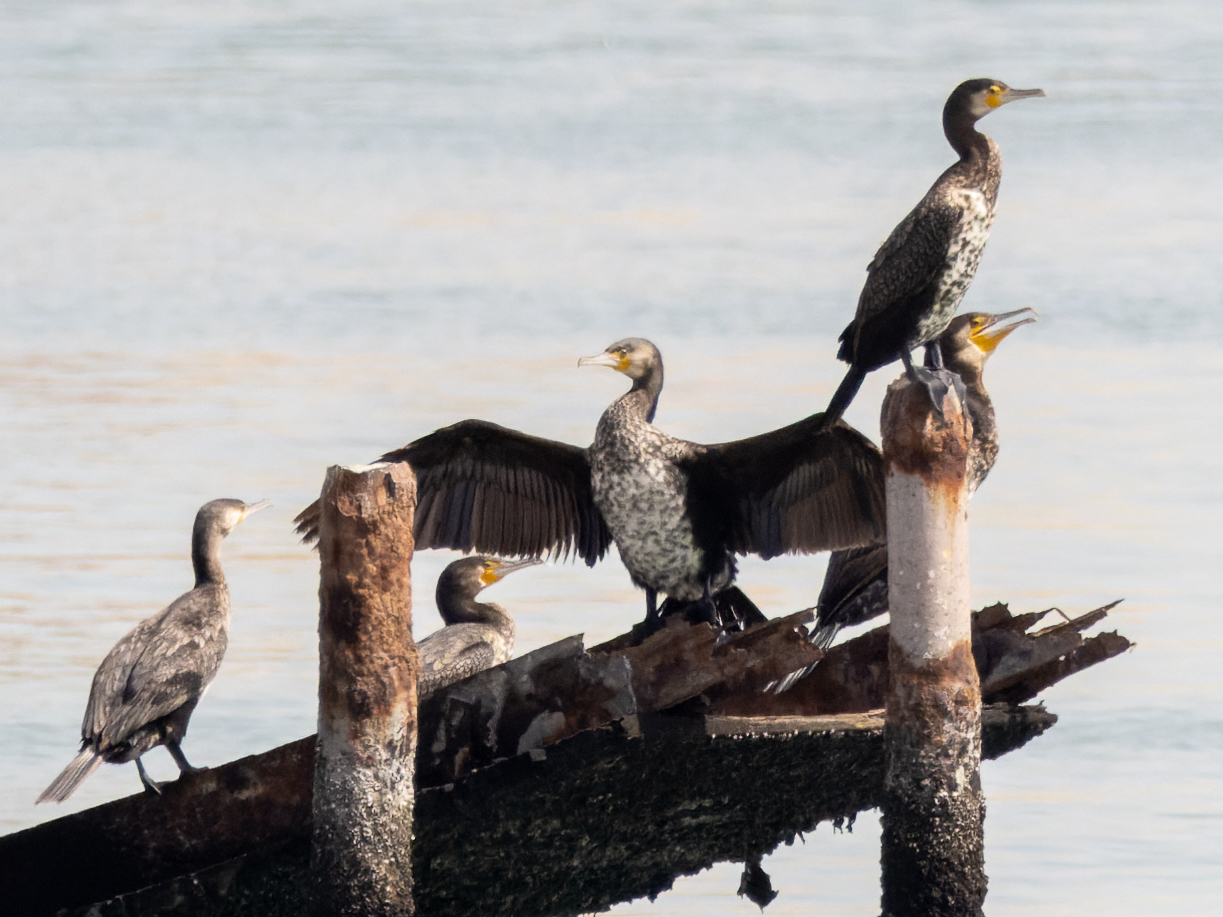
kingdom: Animalia
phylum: Chordata
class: Aves
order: Suliformes
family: Phalacrocoracidae
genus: Phalacrocorax
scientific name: Phalacrocorax carbo
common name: Great cormorant
